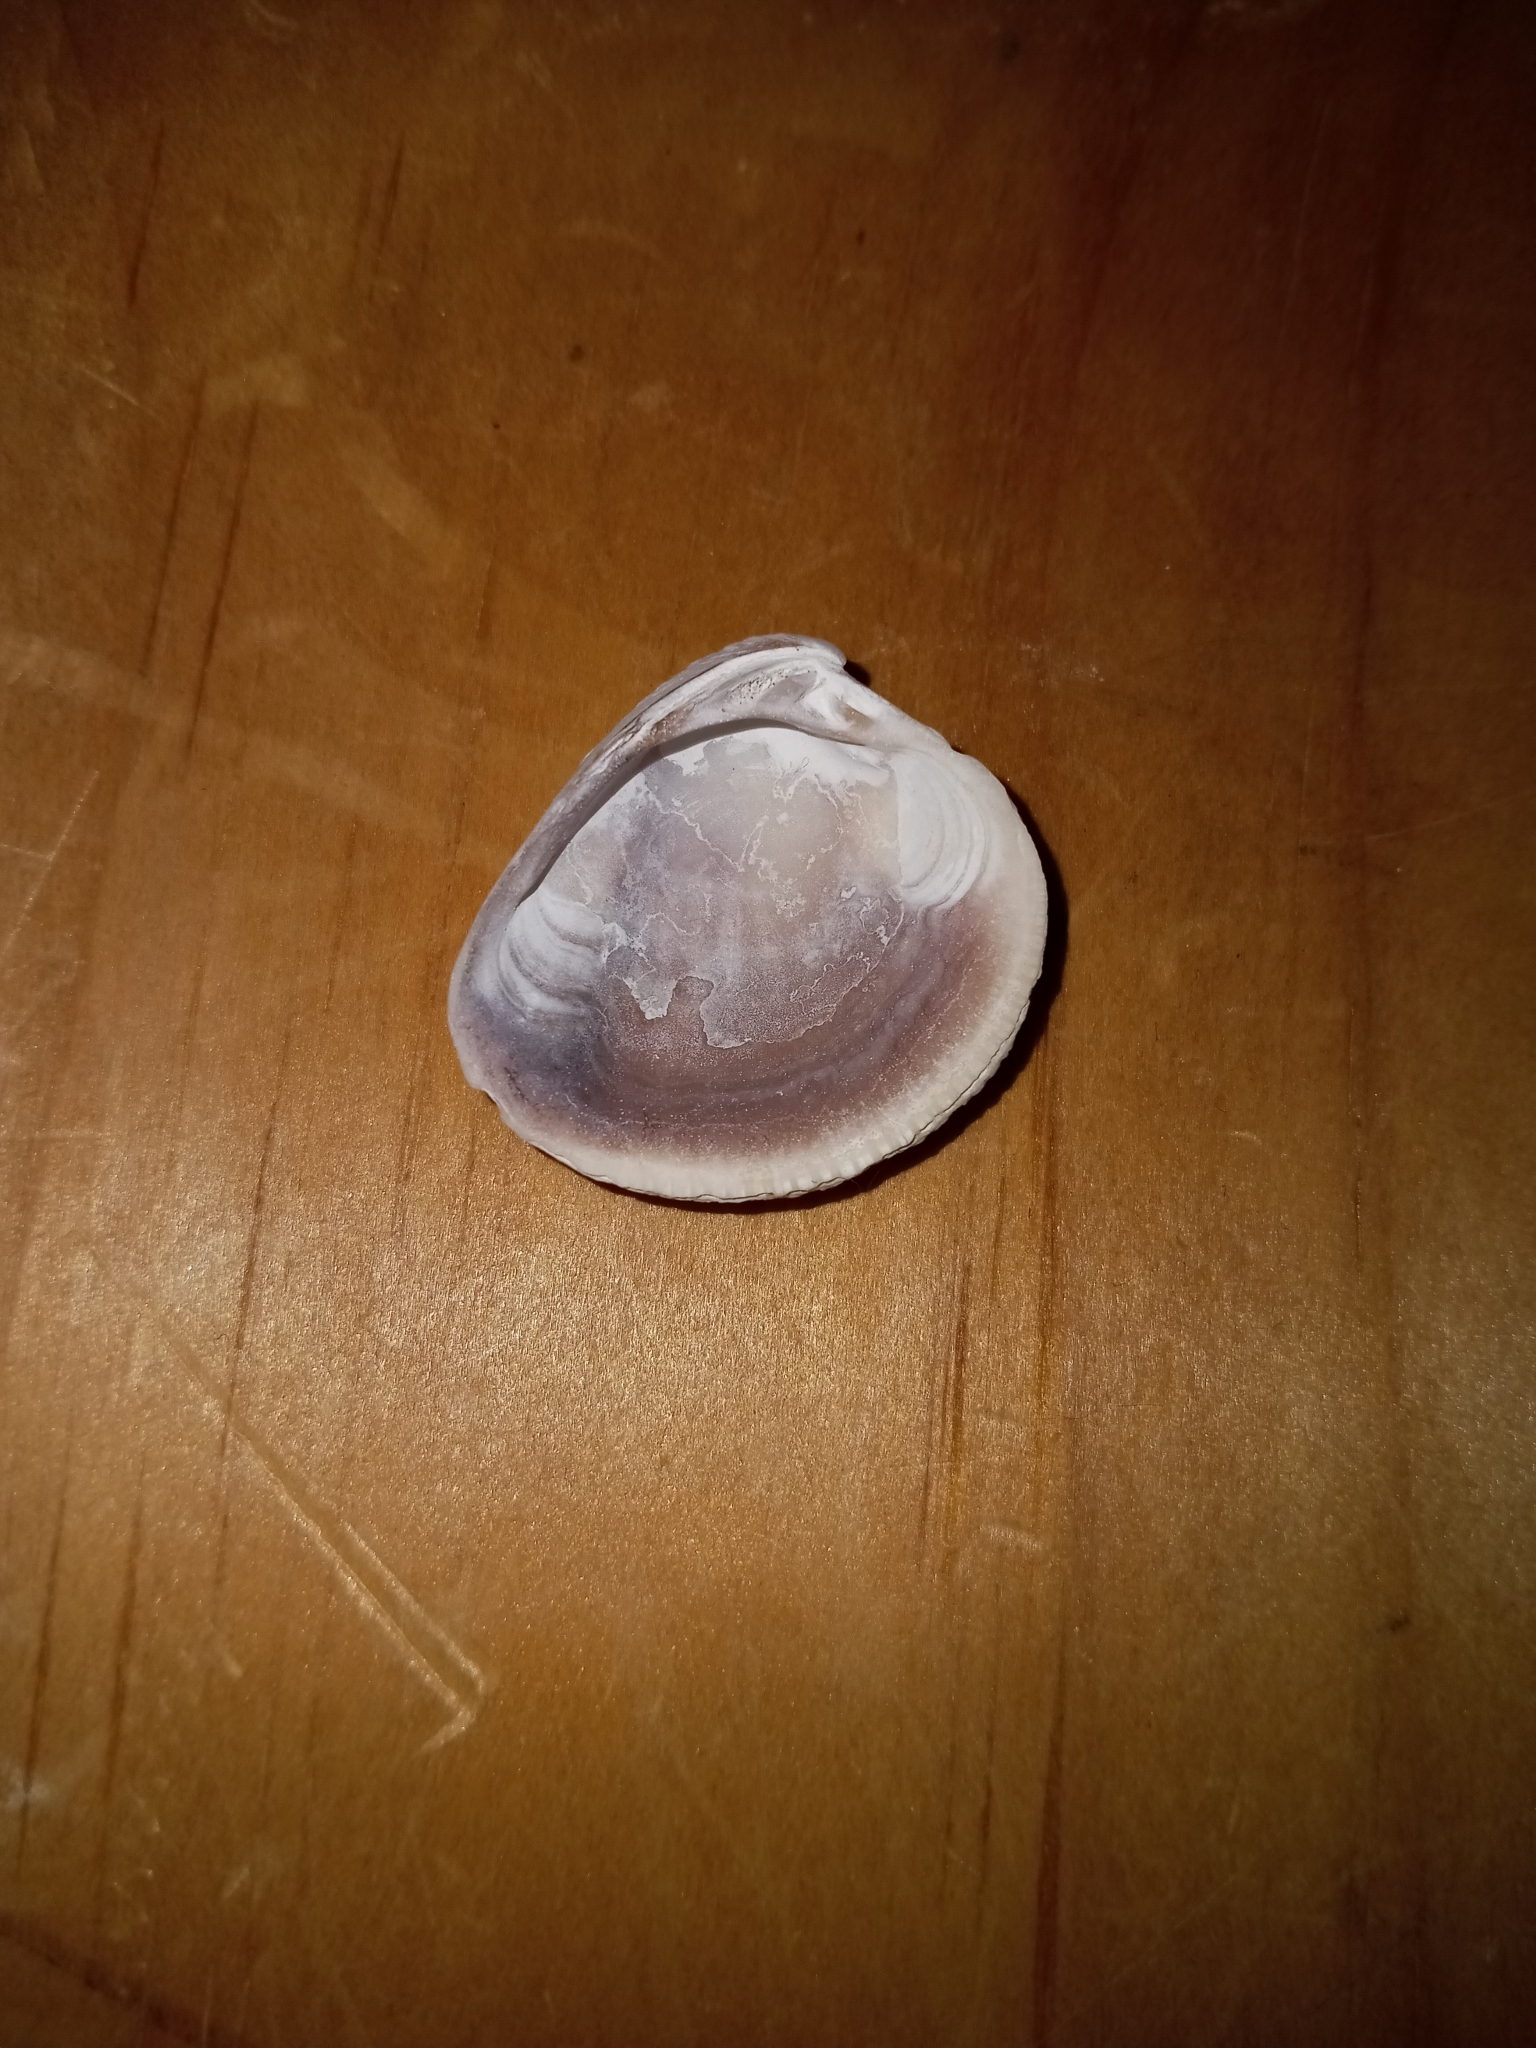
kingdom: Animalia
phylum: Mollusca
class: Bivalvia
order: Venerida
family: Veneridae
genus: Chione
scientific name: Chione elevata
